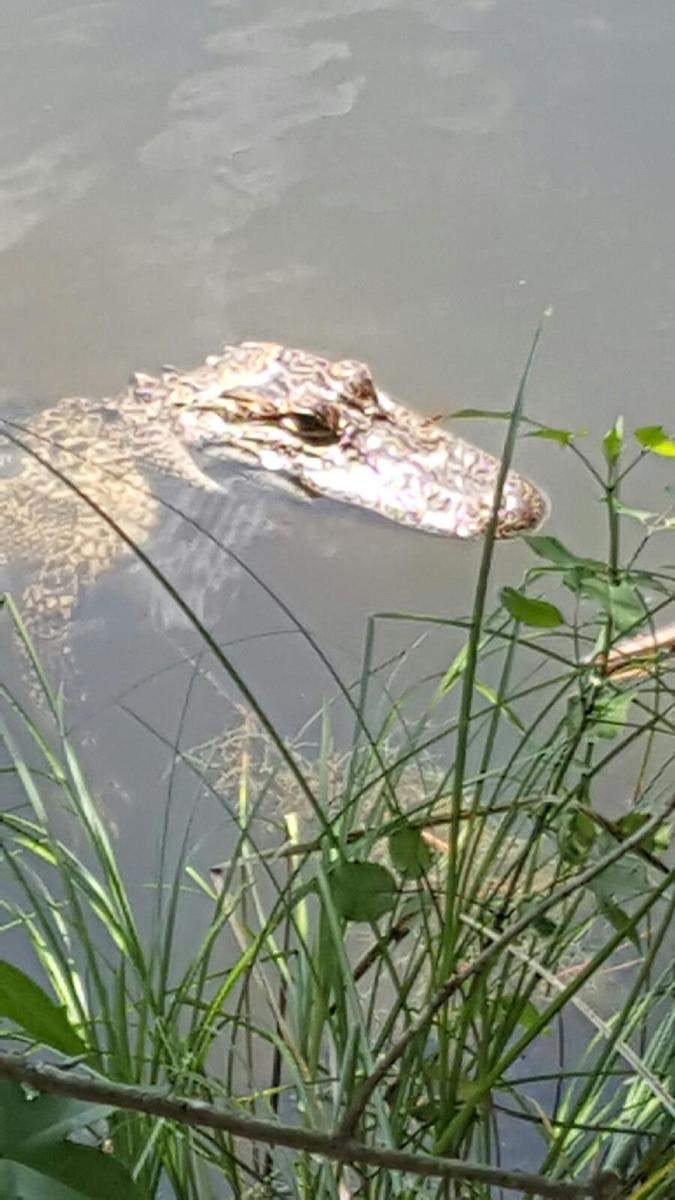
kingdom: Animalia
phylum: Chordata
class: Crocodylia
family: Alligatoridae
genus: Alligator
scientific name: Alligator mississippiensis
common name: American alligator
